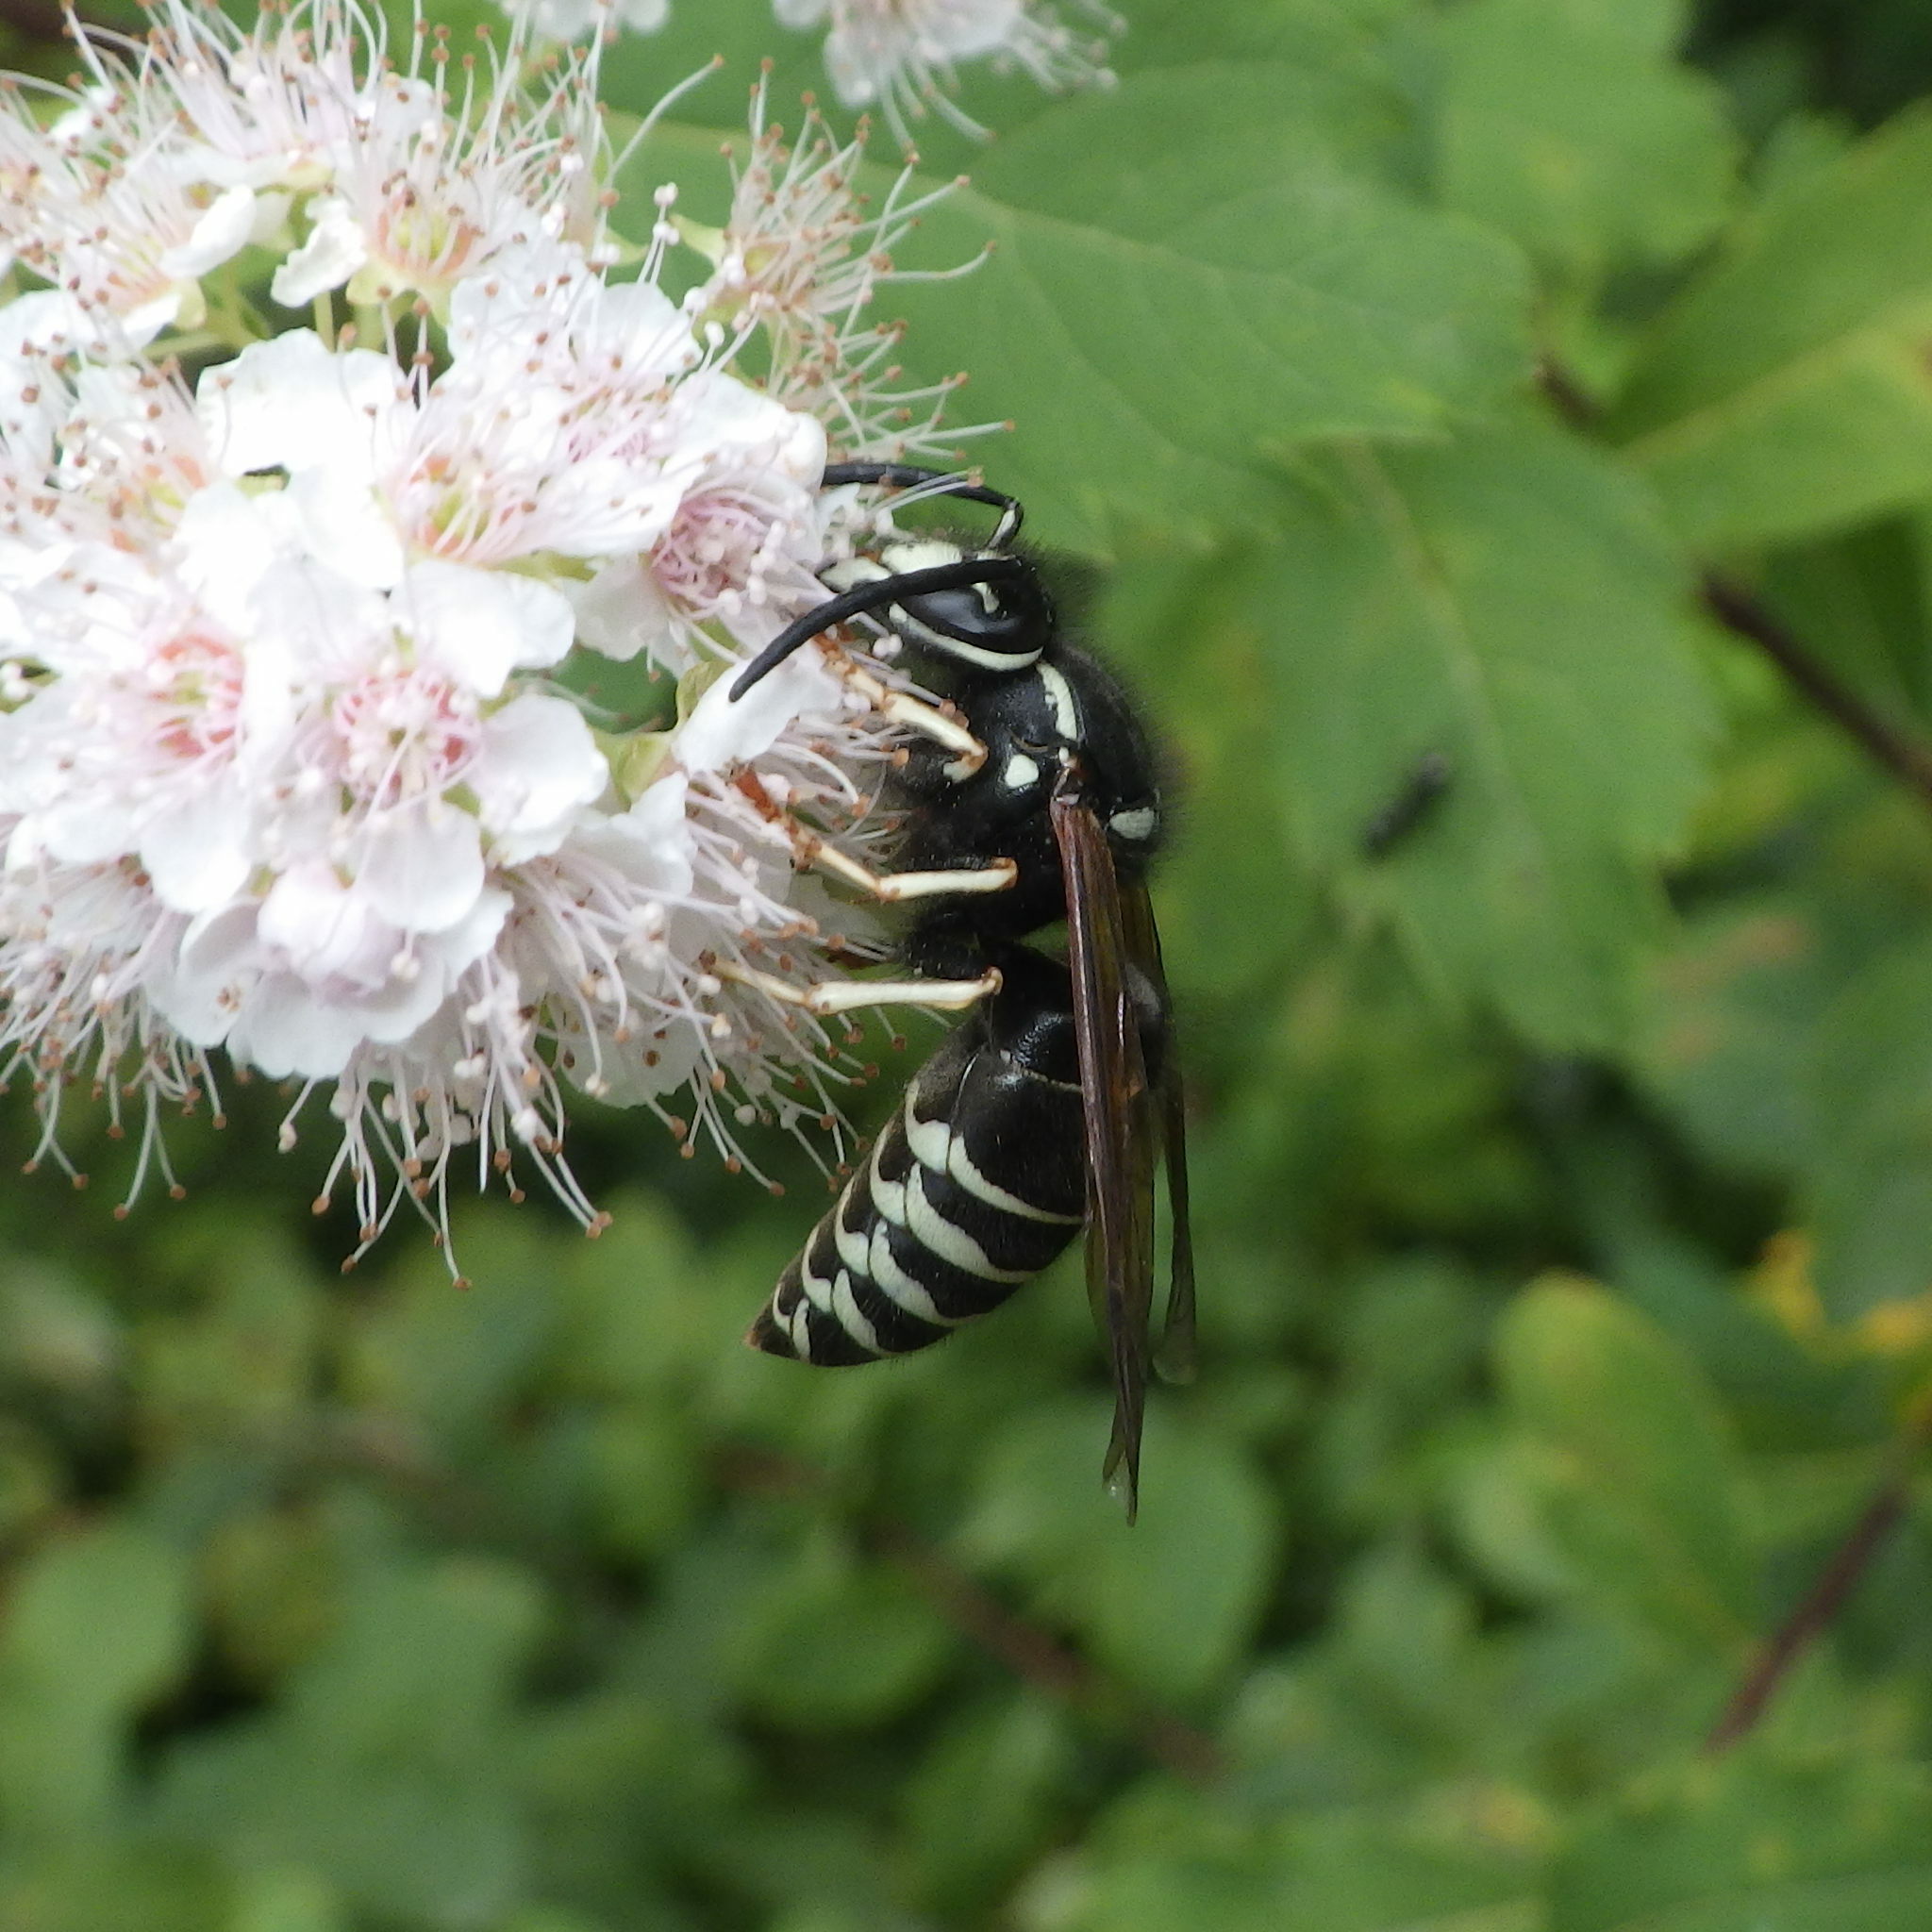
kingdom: Animalia
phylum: Arthropoda
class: Insecta
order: Hymenoptera
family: Vespidae
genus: Vespula
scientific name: Vespula consobrina
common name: Blackjacket
